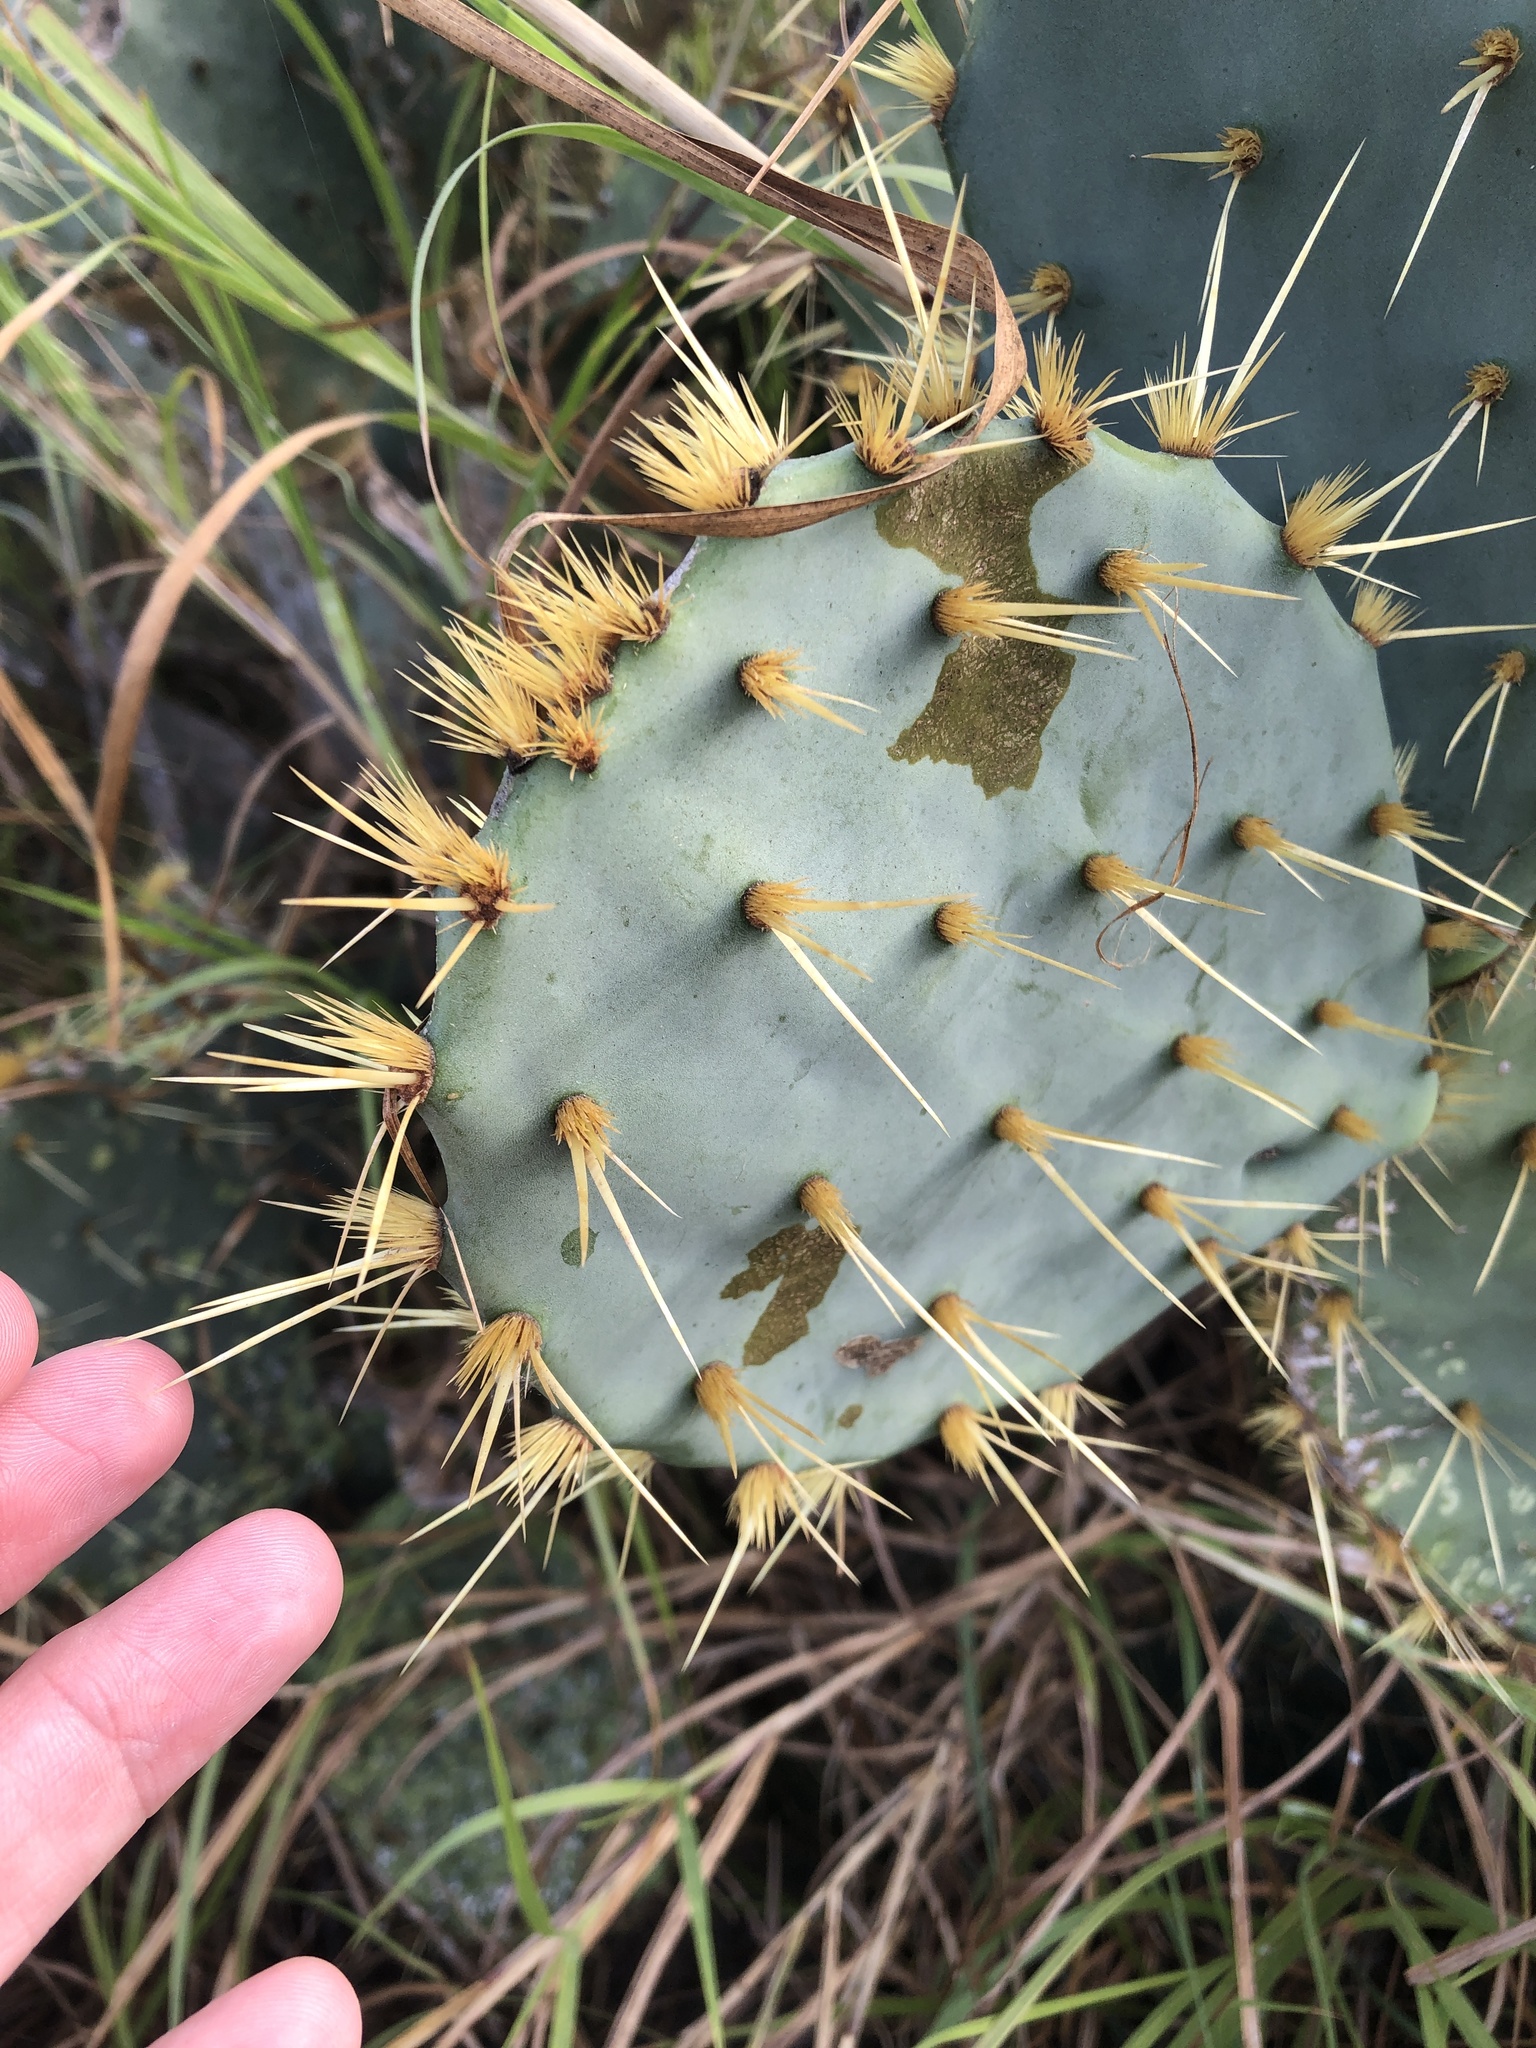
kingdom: Plantae
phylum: Tracheophyta
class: Magnoliopsida
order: Caryophyllales
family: Cactaceae
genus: Opuntia
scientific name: Opuntia engelmannii
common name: Cactus-apple
